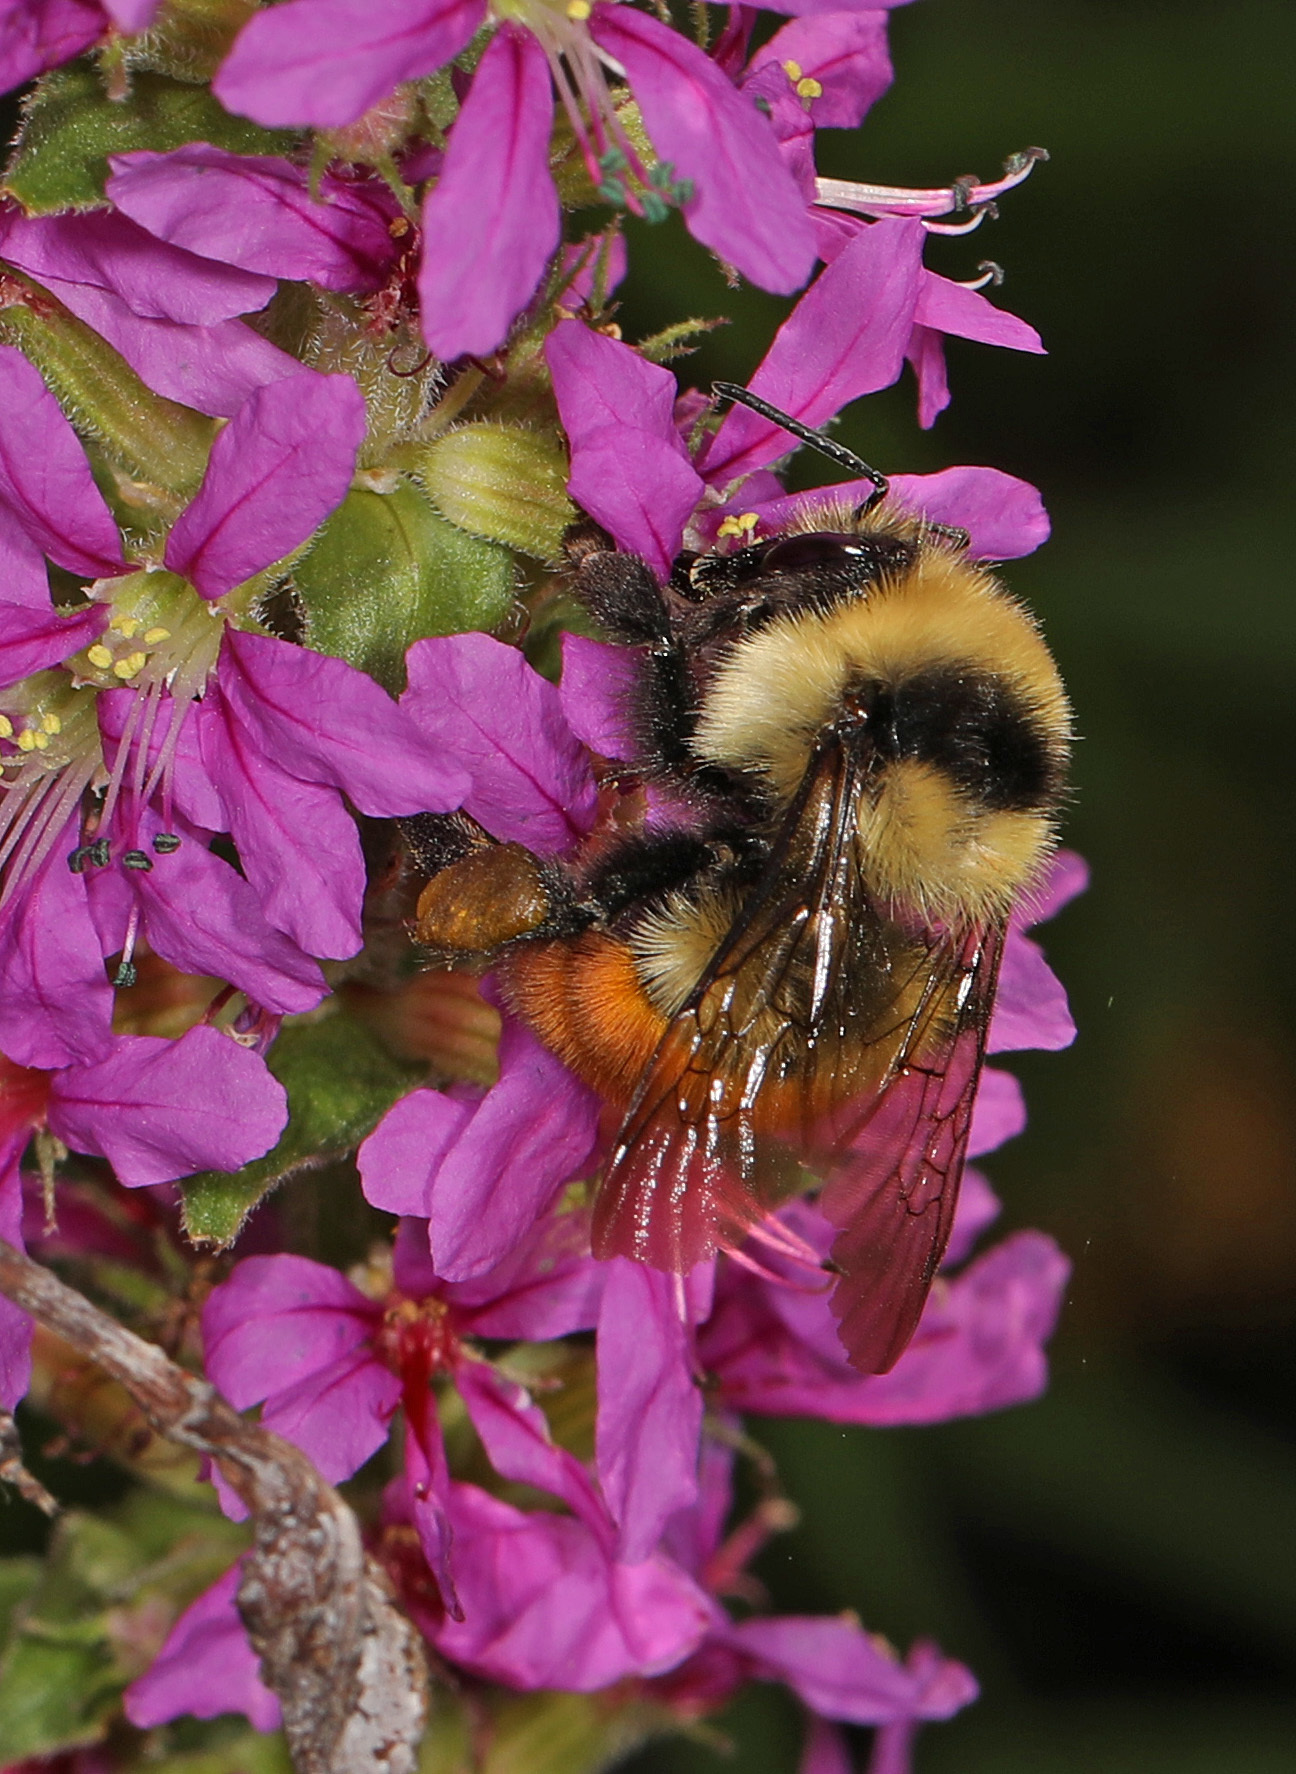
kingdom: Animalia
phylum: Arthropoda
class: Insecta
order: Hymenoptera
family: Apidae
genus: Bombus
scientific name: Bombus huntii
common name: Hunt bumble bee
